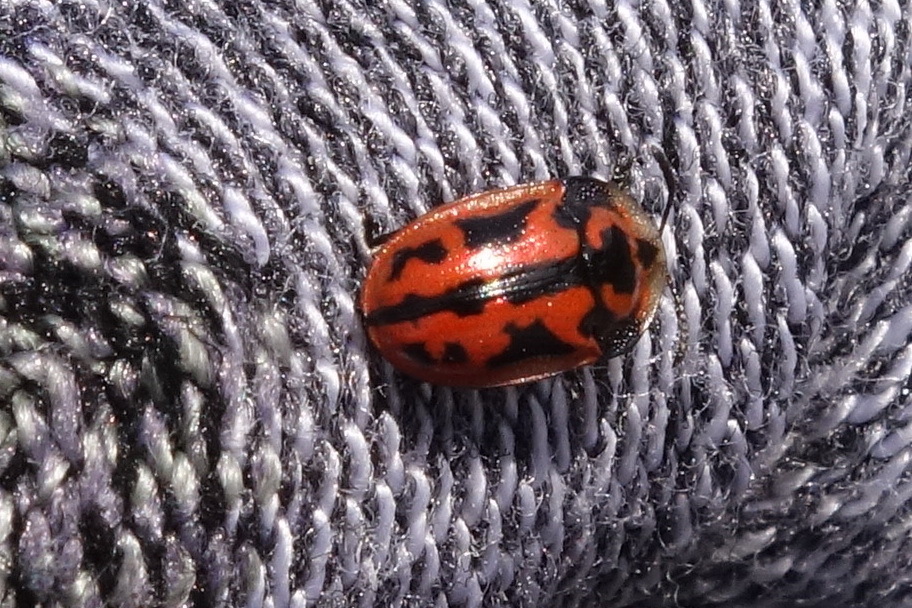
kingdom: Animalia
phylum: Arthropoda
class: Insecta
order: Coleoptera
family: Chrysomelidae
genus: Pilemostoma
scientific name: Pilemostoma fastuosa
